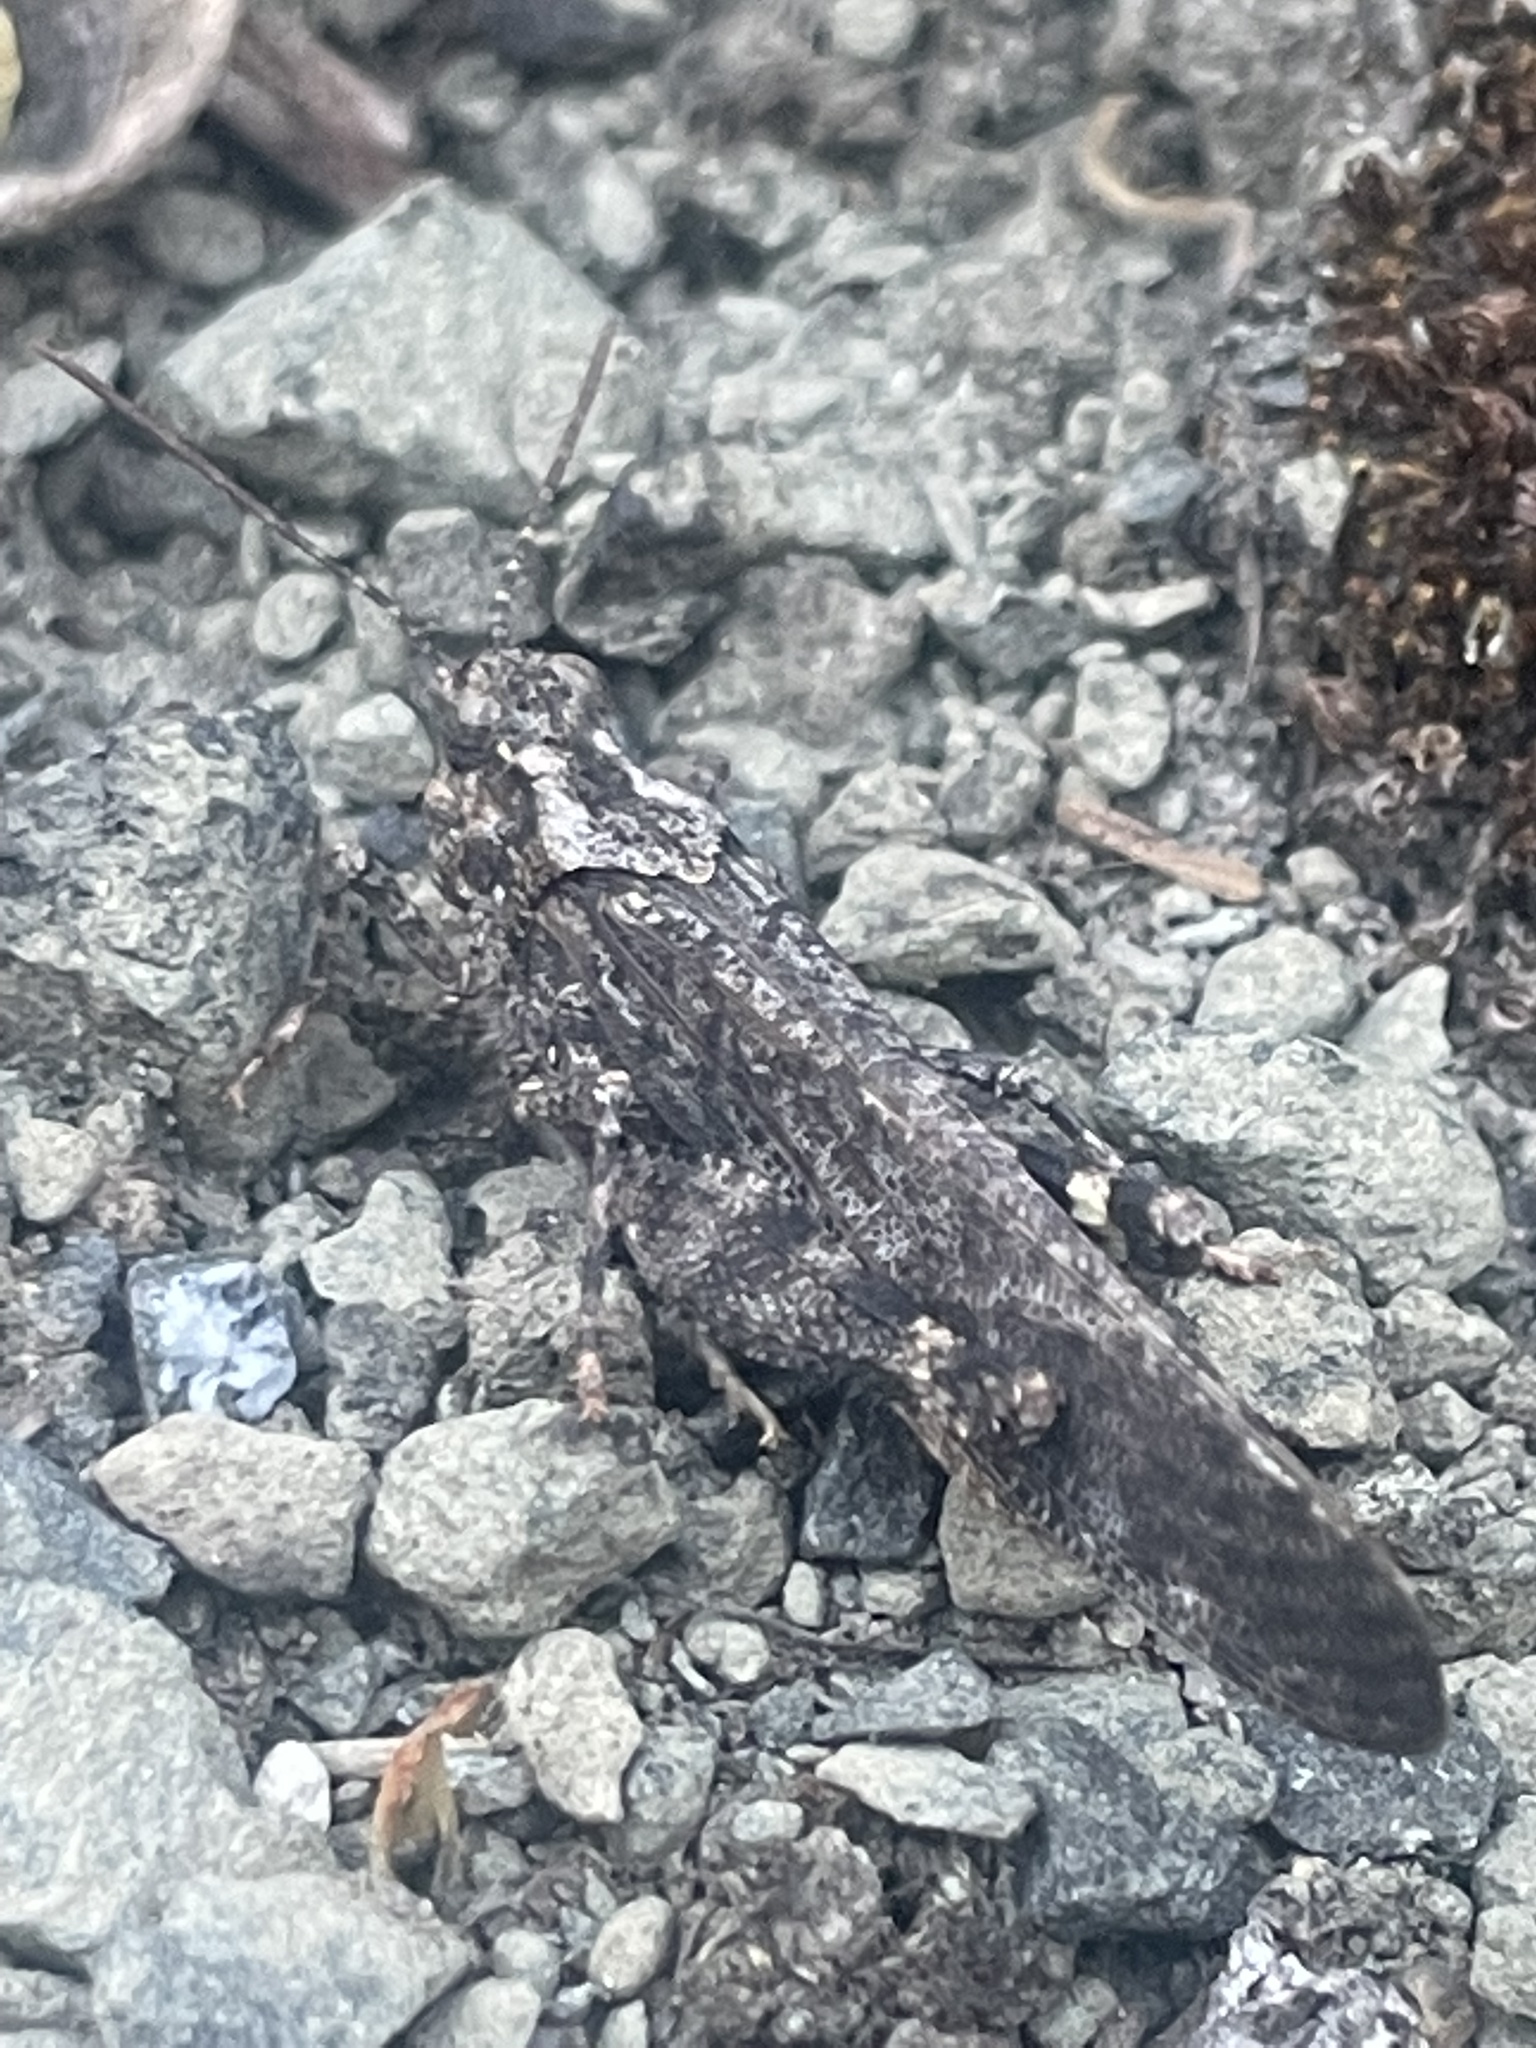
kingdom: Animalia
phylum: Arthropoda
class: Insecta
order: Orthoptera
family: Acrididae
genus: Trimerotropis
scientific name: Trimerotropis verruculata
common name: Crackling forest grasshopper
